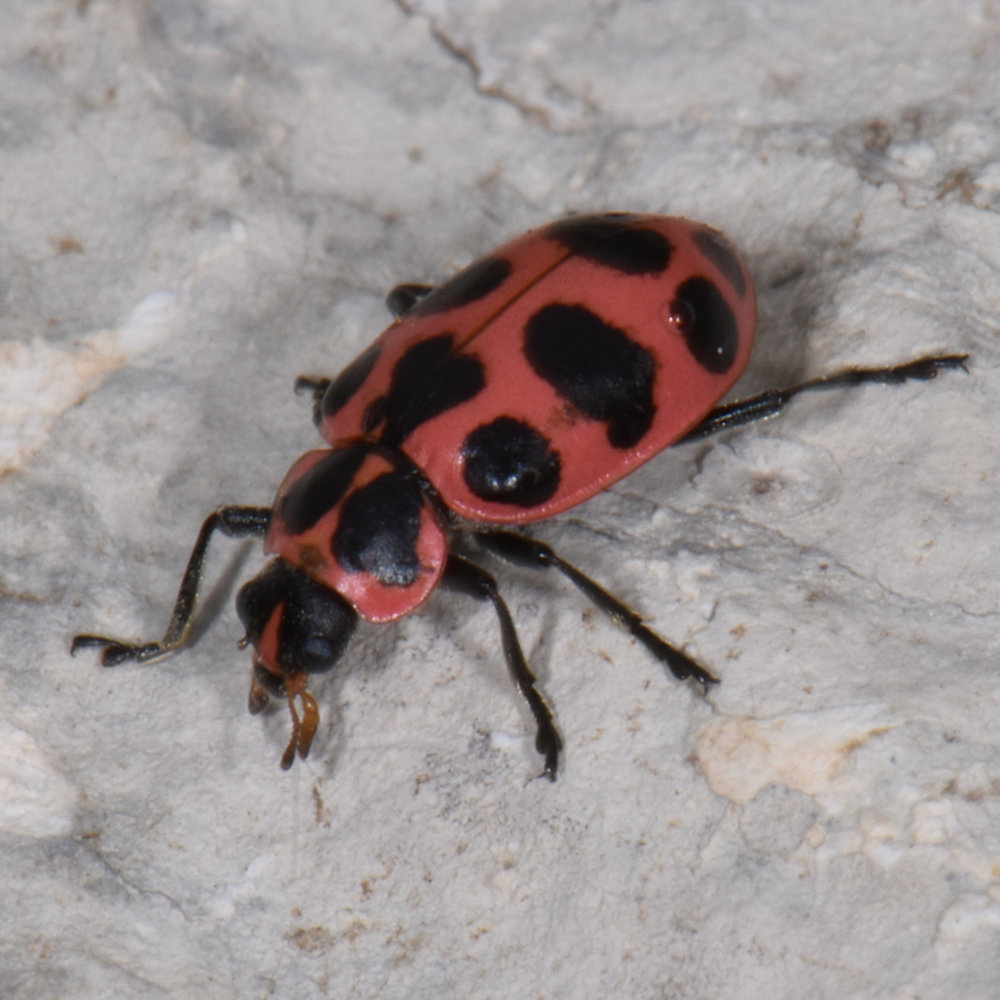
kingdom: Animalia
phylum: Arthropoda
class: Insecta
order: Coleoptera
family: Coccinellidae
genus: Coleomegilla
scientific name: Coleomegilla maculata
